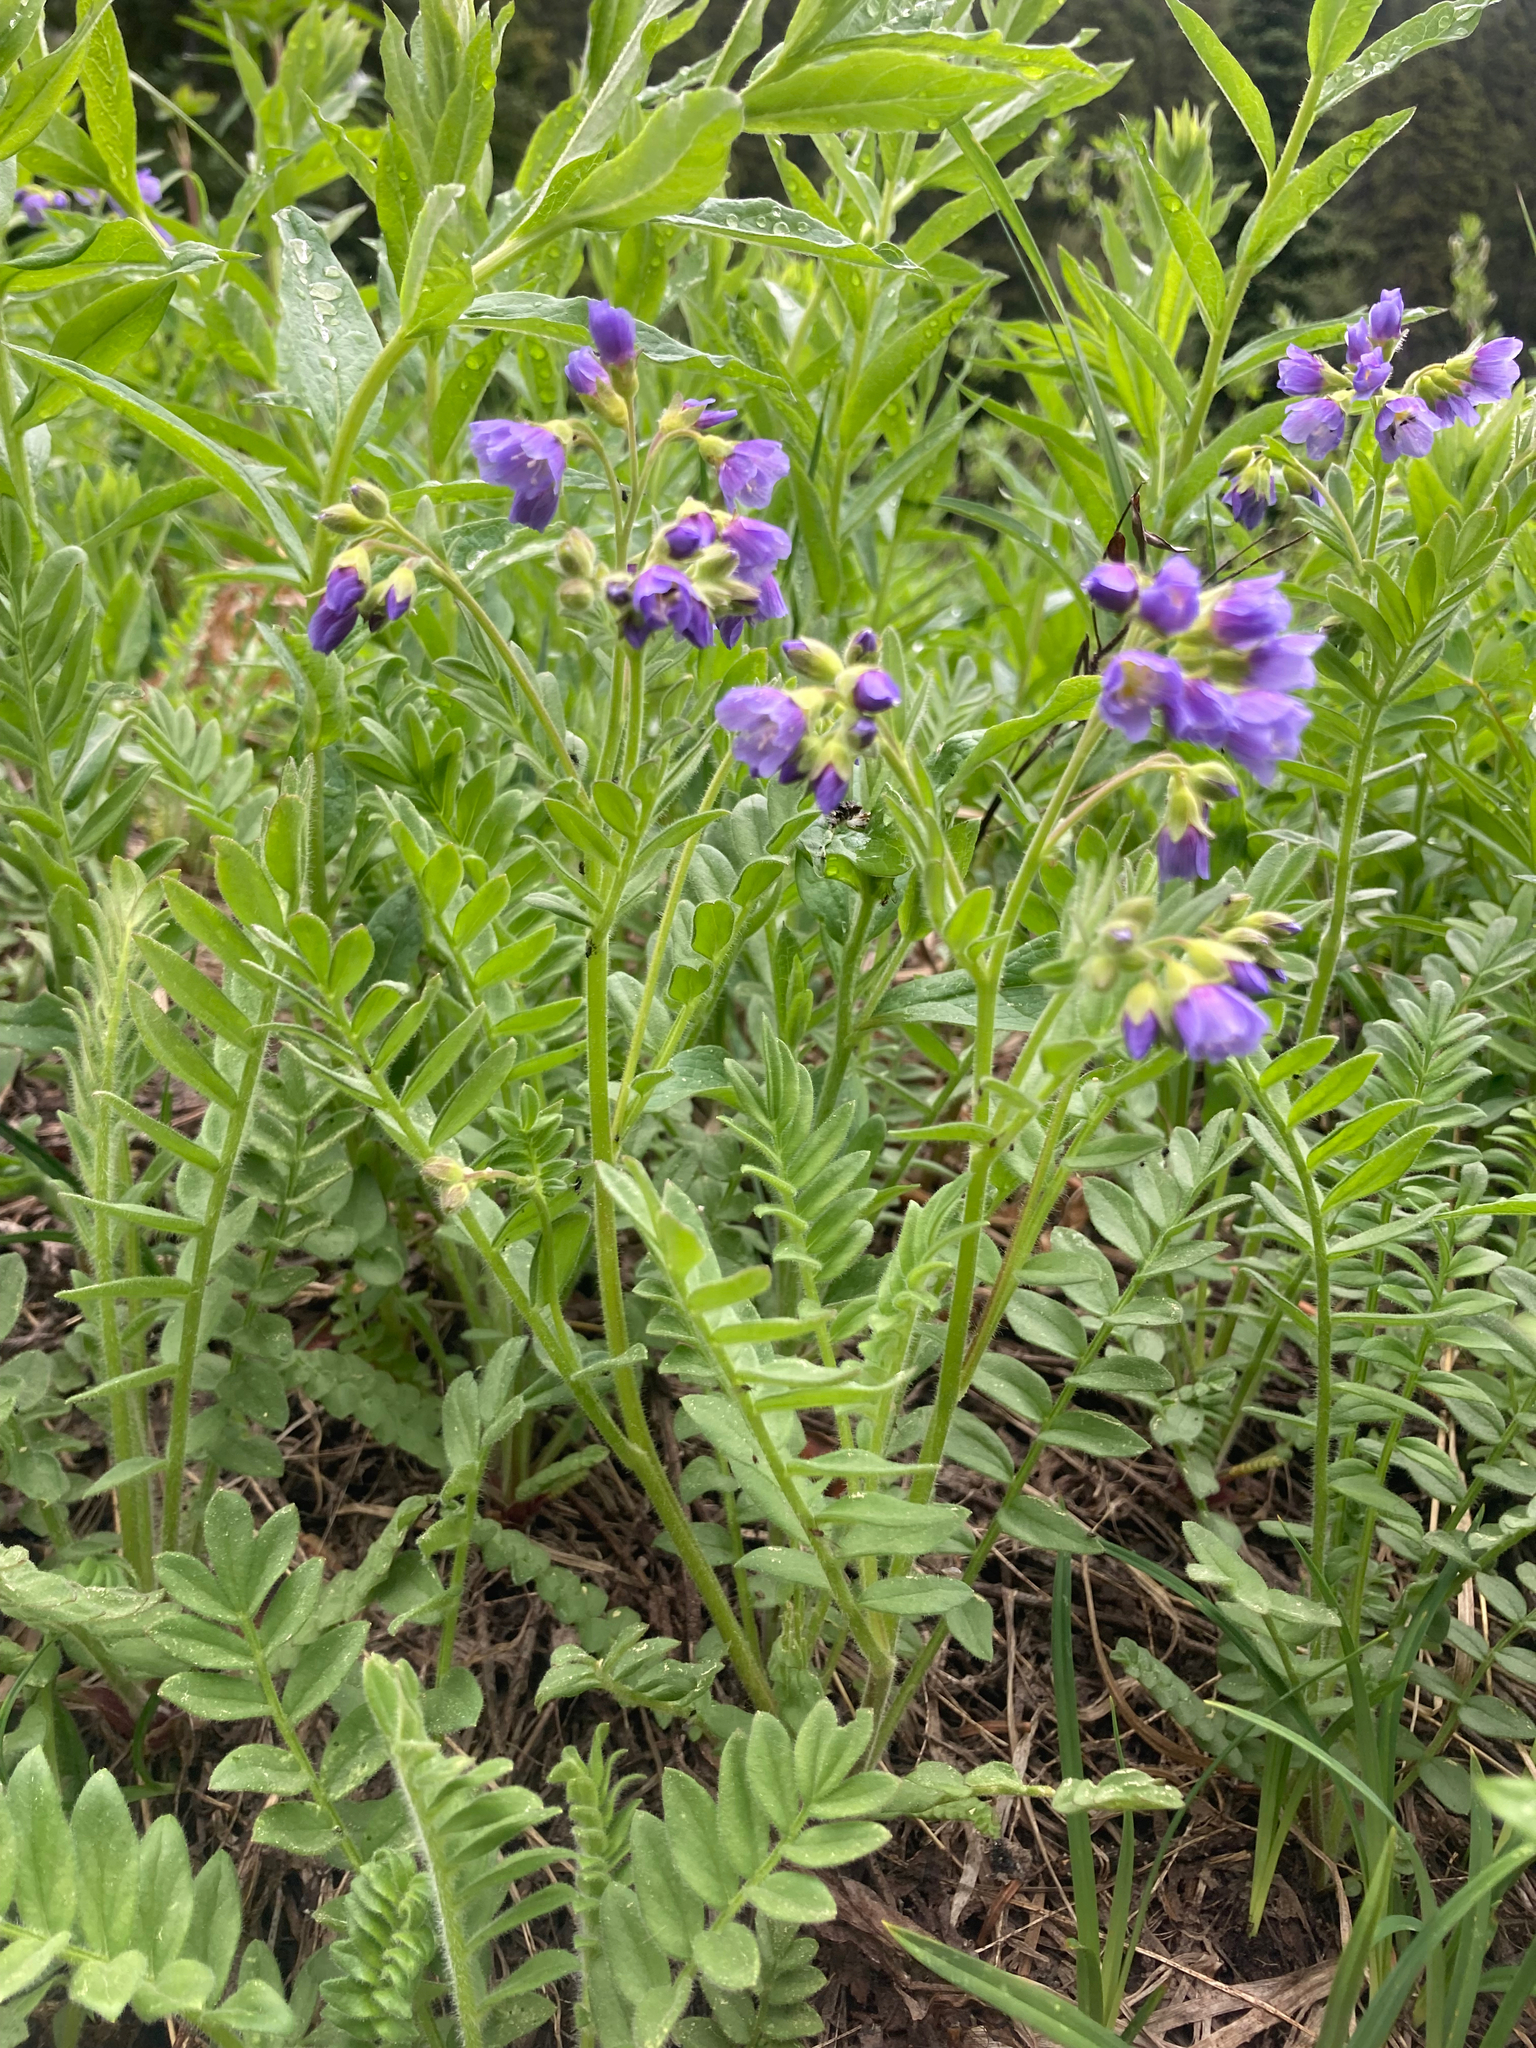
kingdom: Plantae
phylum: Tracheophyta
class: Magnoliopsida
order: Ericales
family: Polemoniaceae
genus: Polemonium
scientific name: Polemonium californicum
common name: California jacob's ladder
